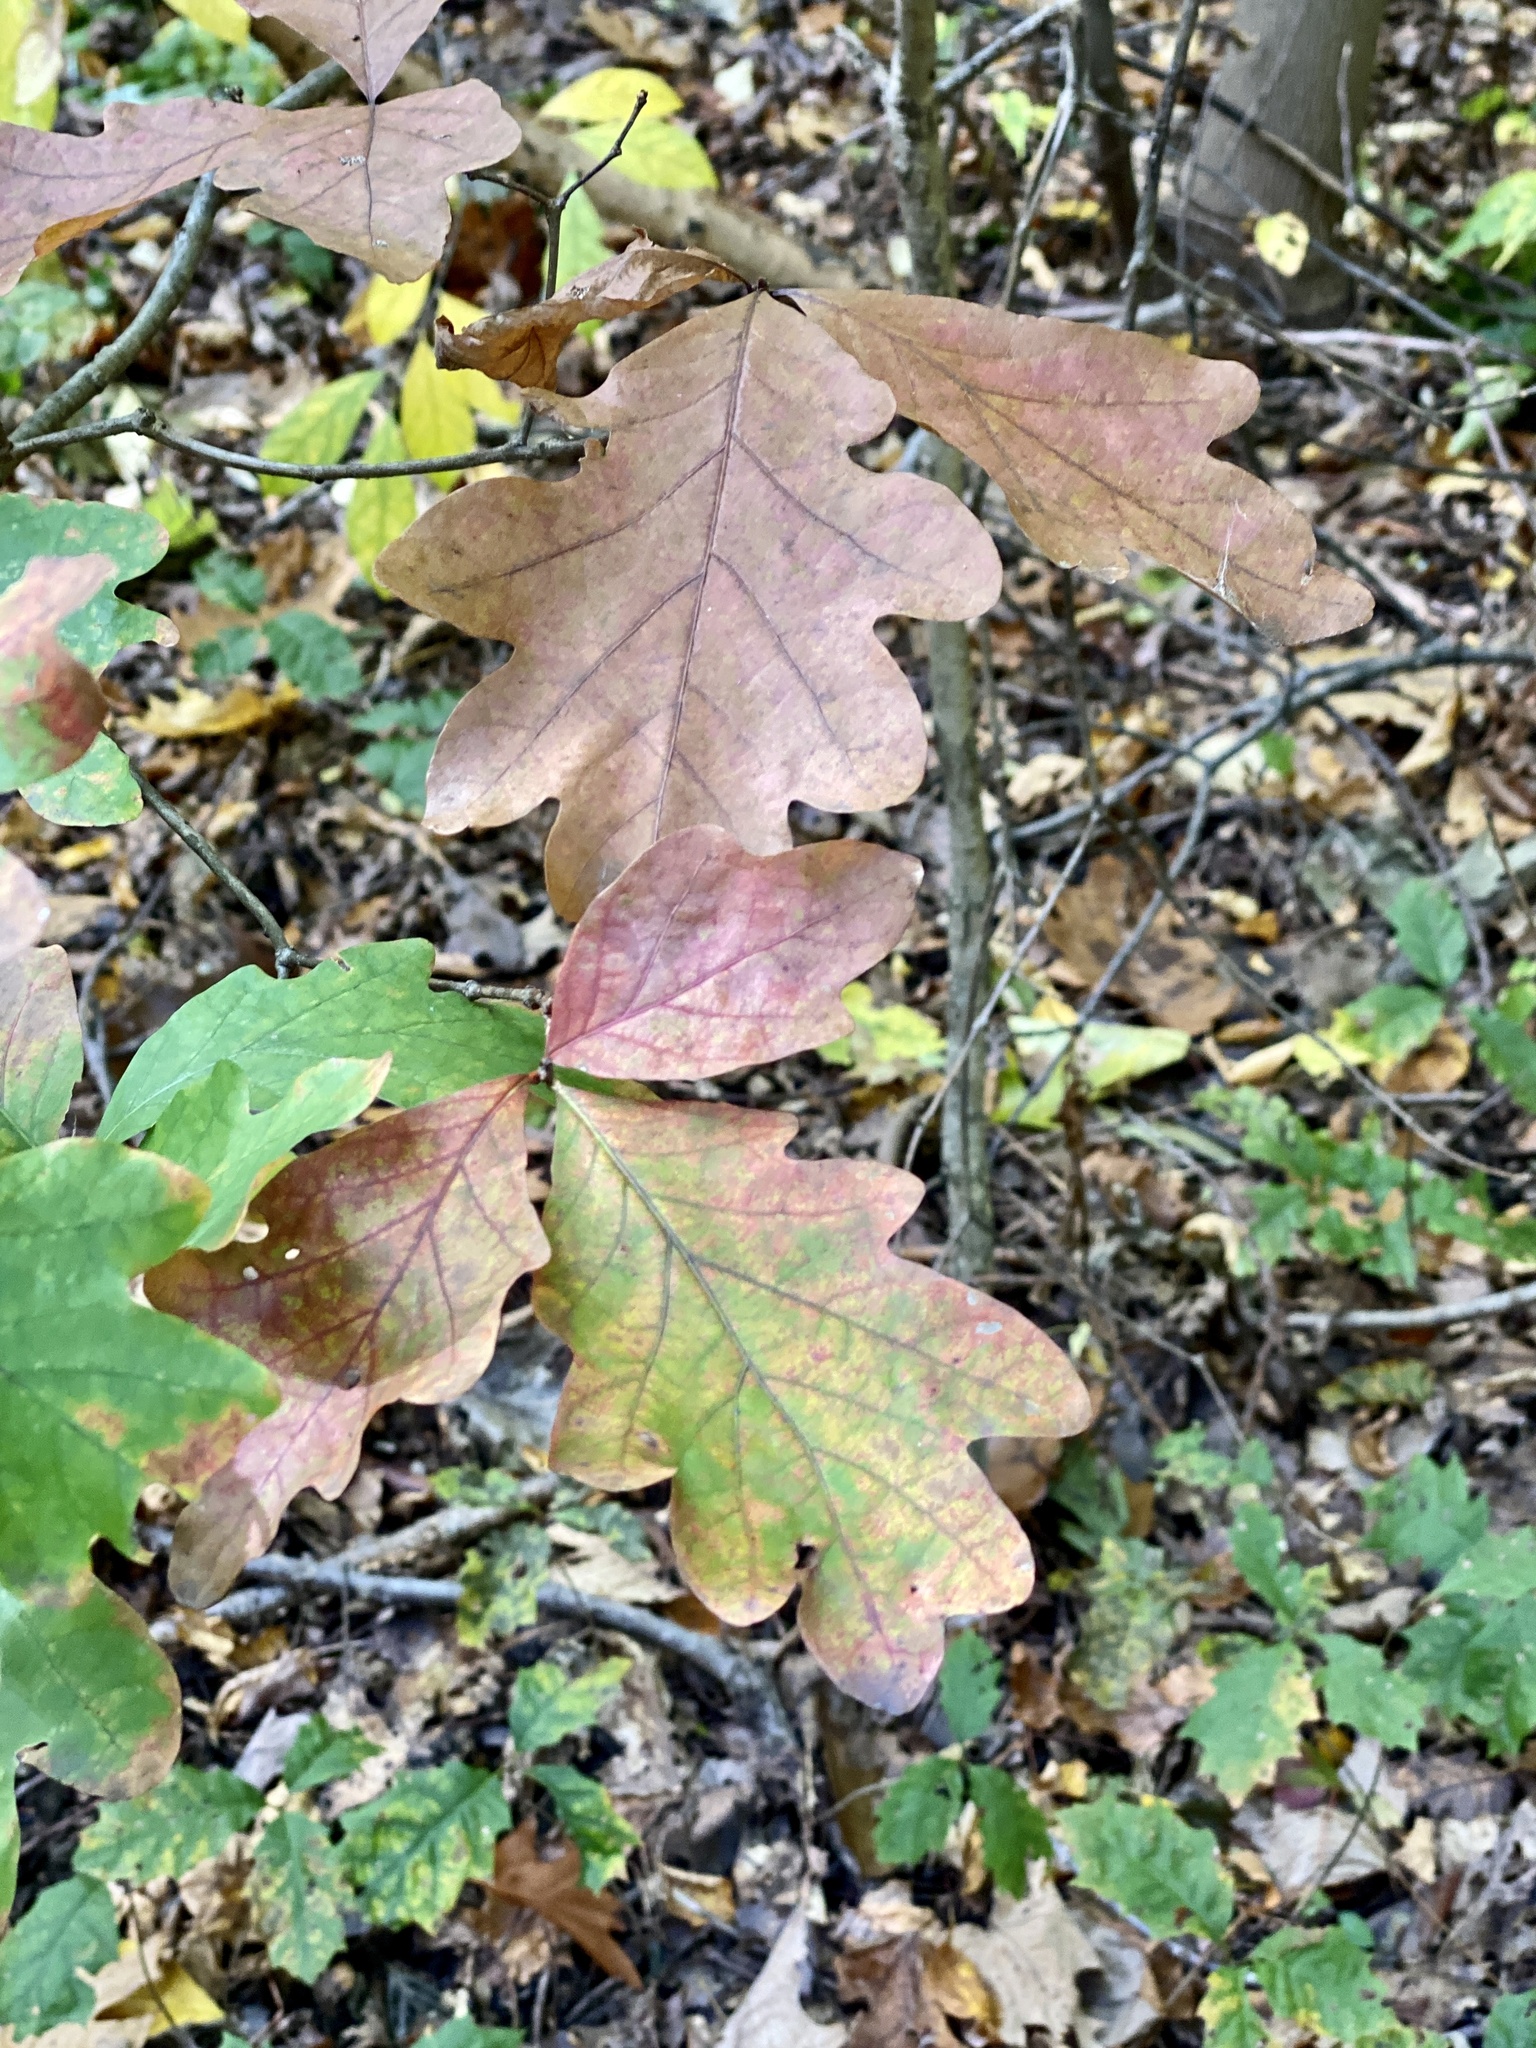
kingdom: Plantae
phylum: Tracheophyta
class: Magnoliopsida
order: Fagales
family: Fagaceae
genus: Quercus
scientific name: Quercus alba
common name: White oak
